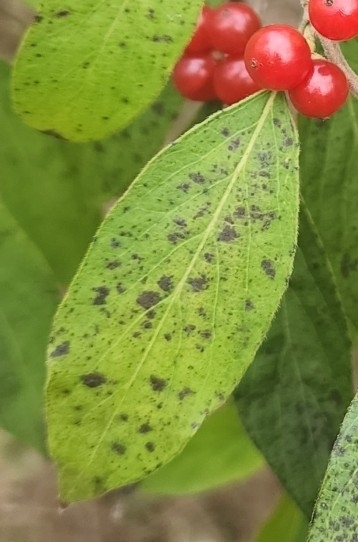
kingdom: Plantae
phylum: Tracheophyta
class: Magnoliopsida
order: Dipsacales
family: Caprifoliaceae
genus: Lonicera
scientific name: Lonicera maackii
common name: Amur honeysuckle
